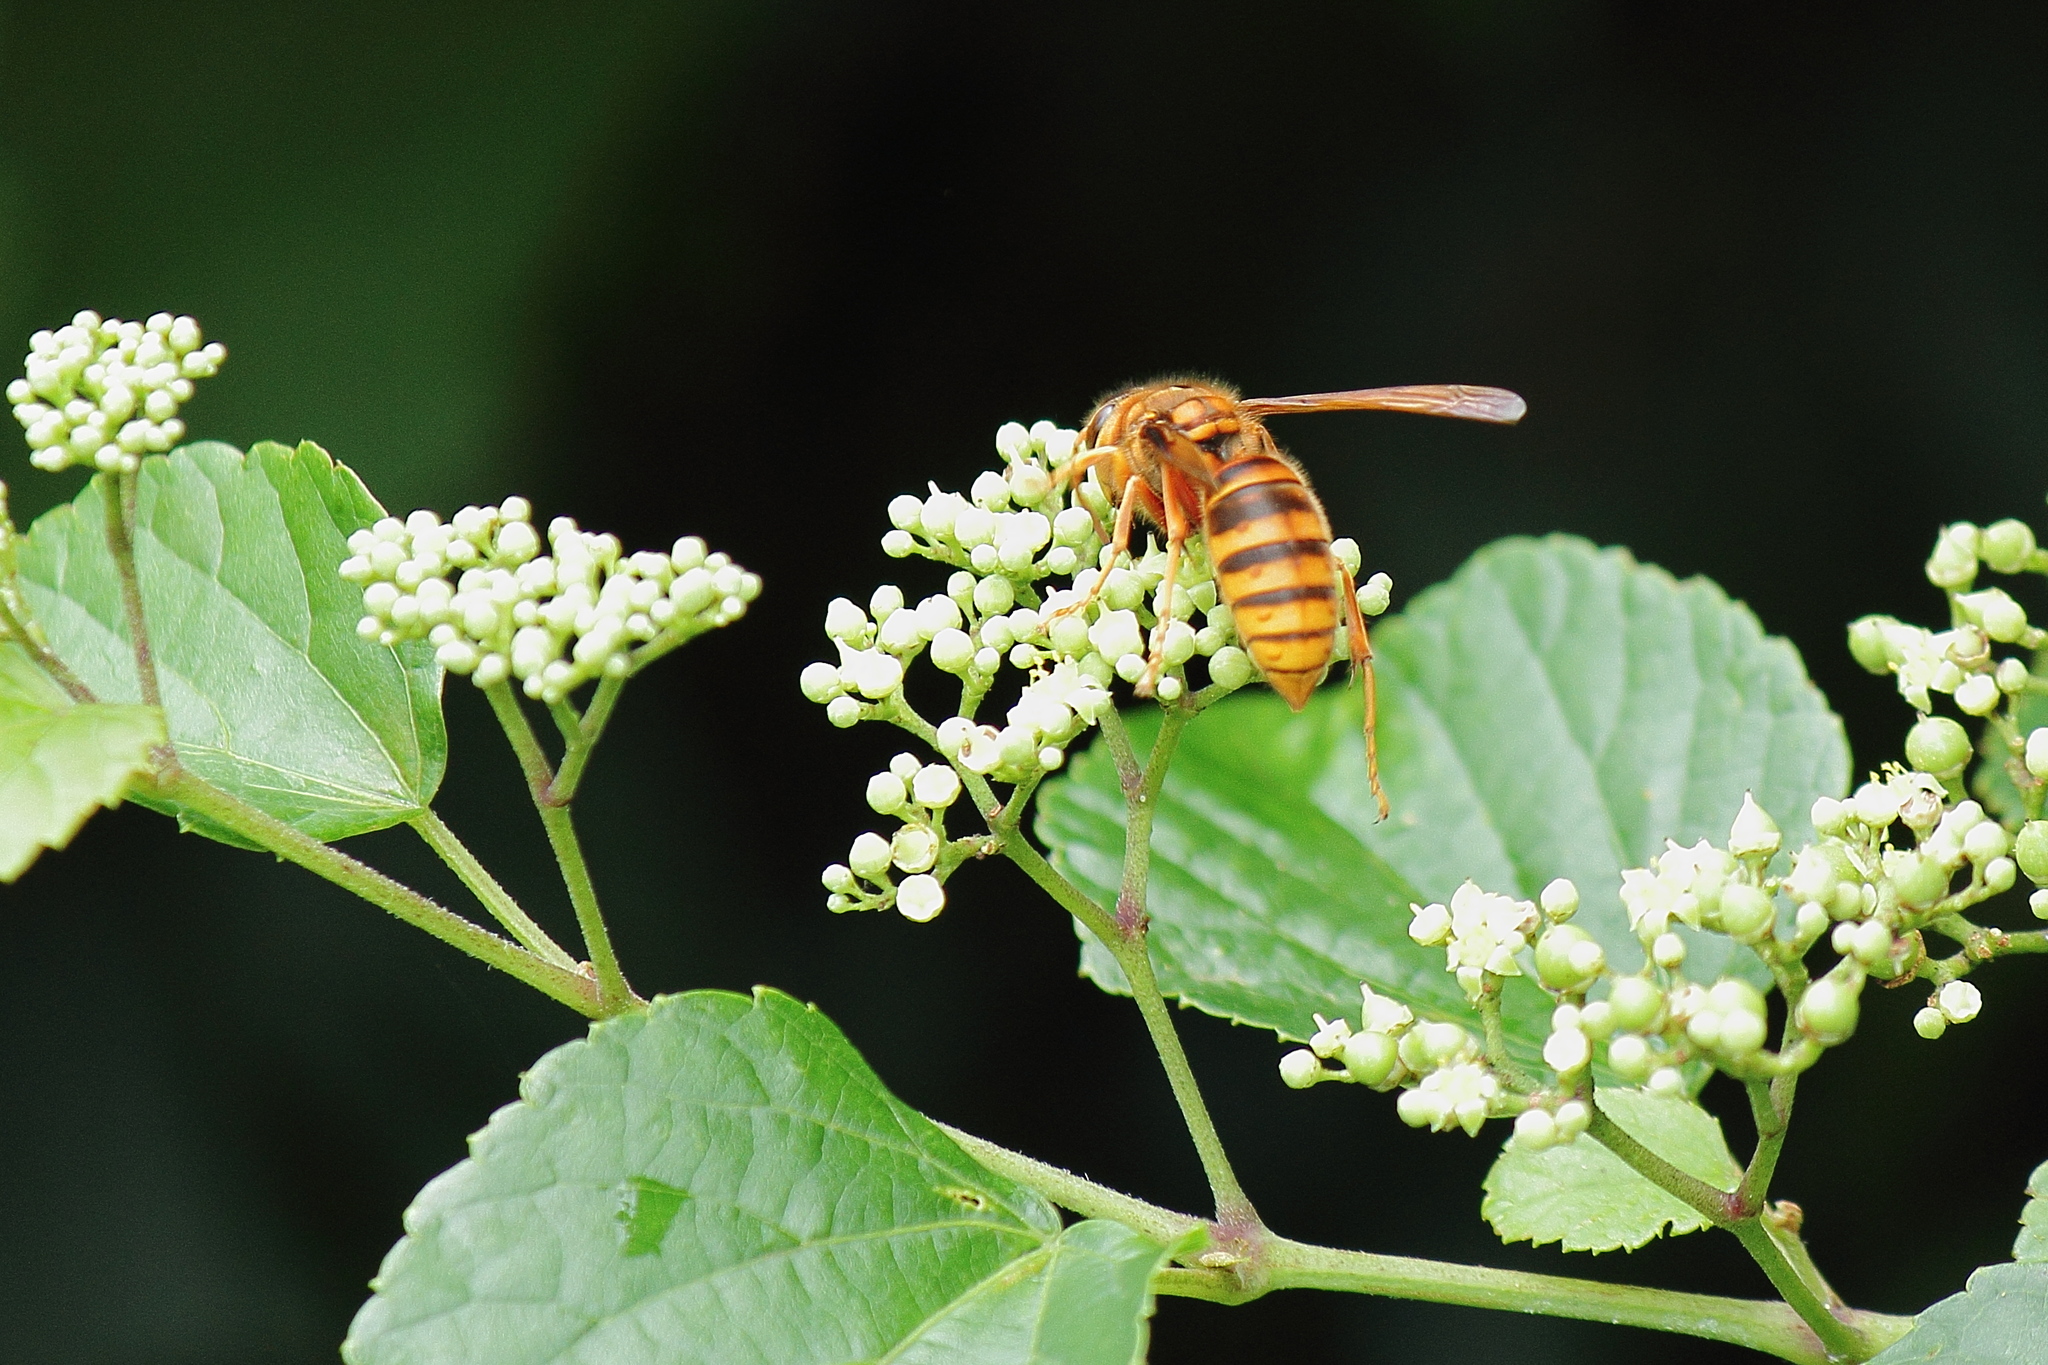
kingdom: Animalia
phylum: Arthropoda
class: Insecta
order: Hymenoptera
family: Vespidae
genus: Vespa
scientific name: Vespa simillima
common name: Vespid wasp
